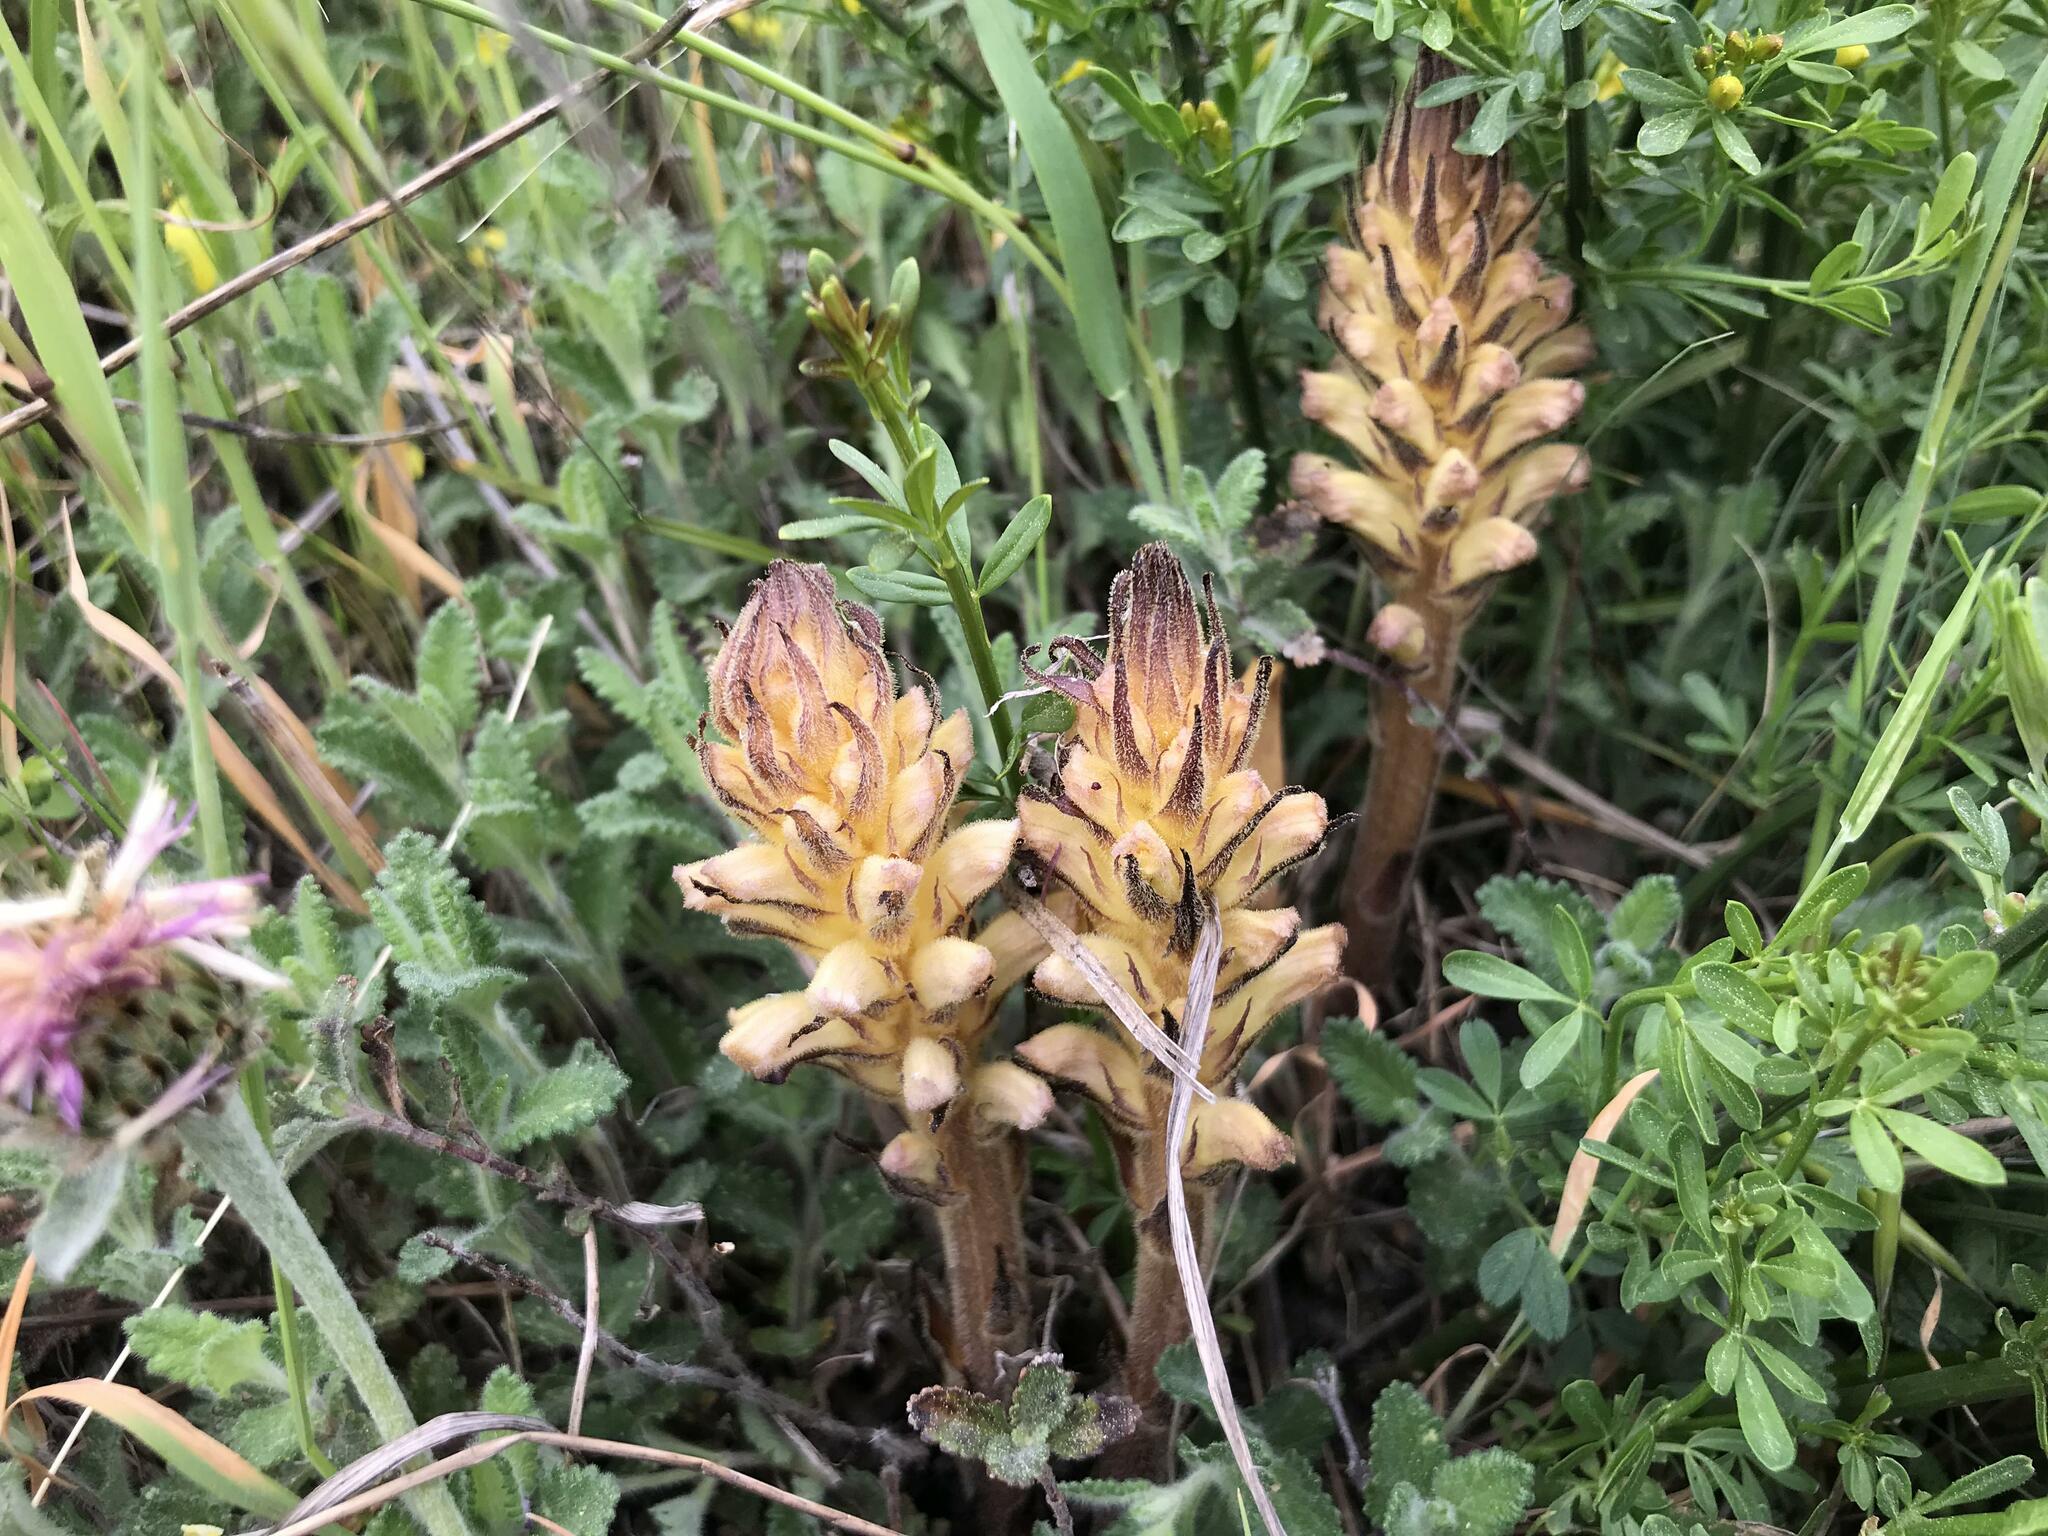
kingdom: Plantae
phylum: Tracheophyta
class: Magnoliopsida
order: Lamiales
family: Orobanchaceae
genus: Orobanche
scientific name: Orobanche lutea
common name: Yellow broomrape
